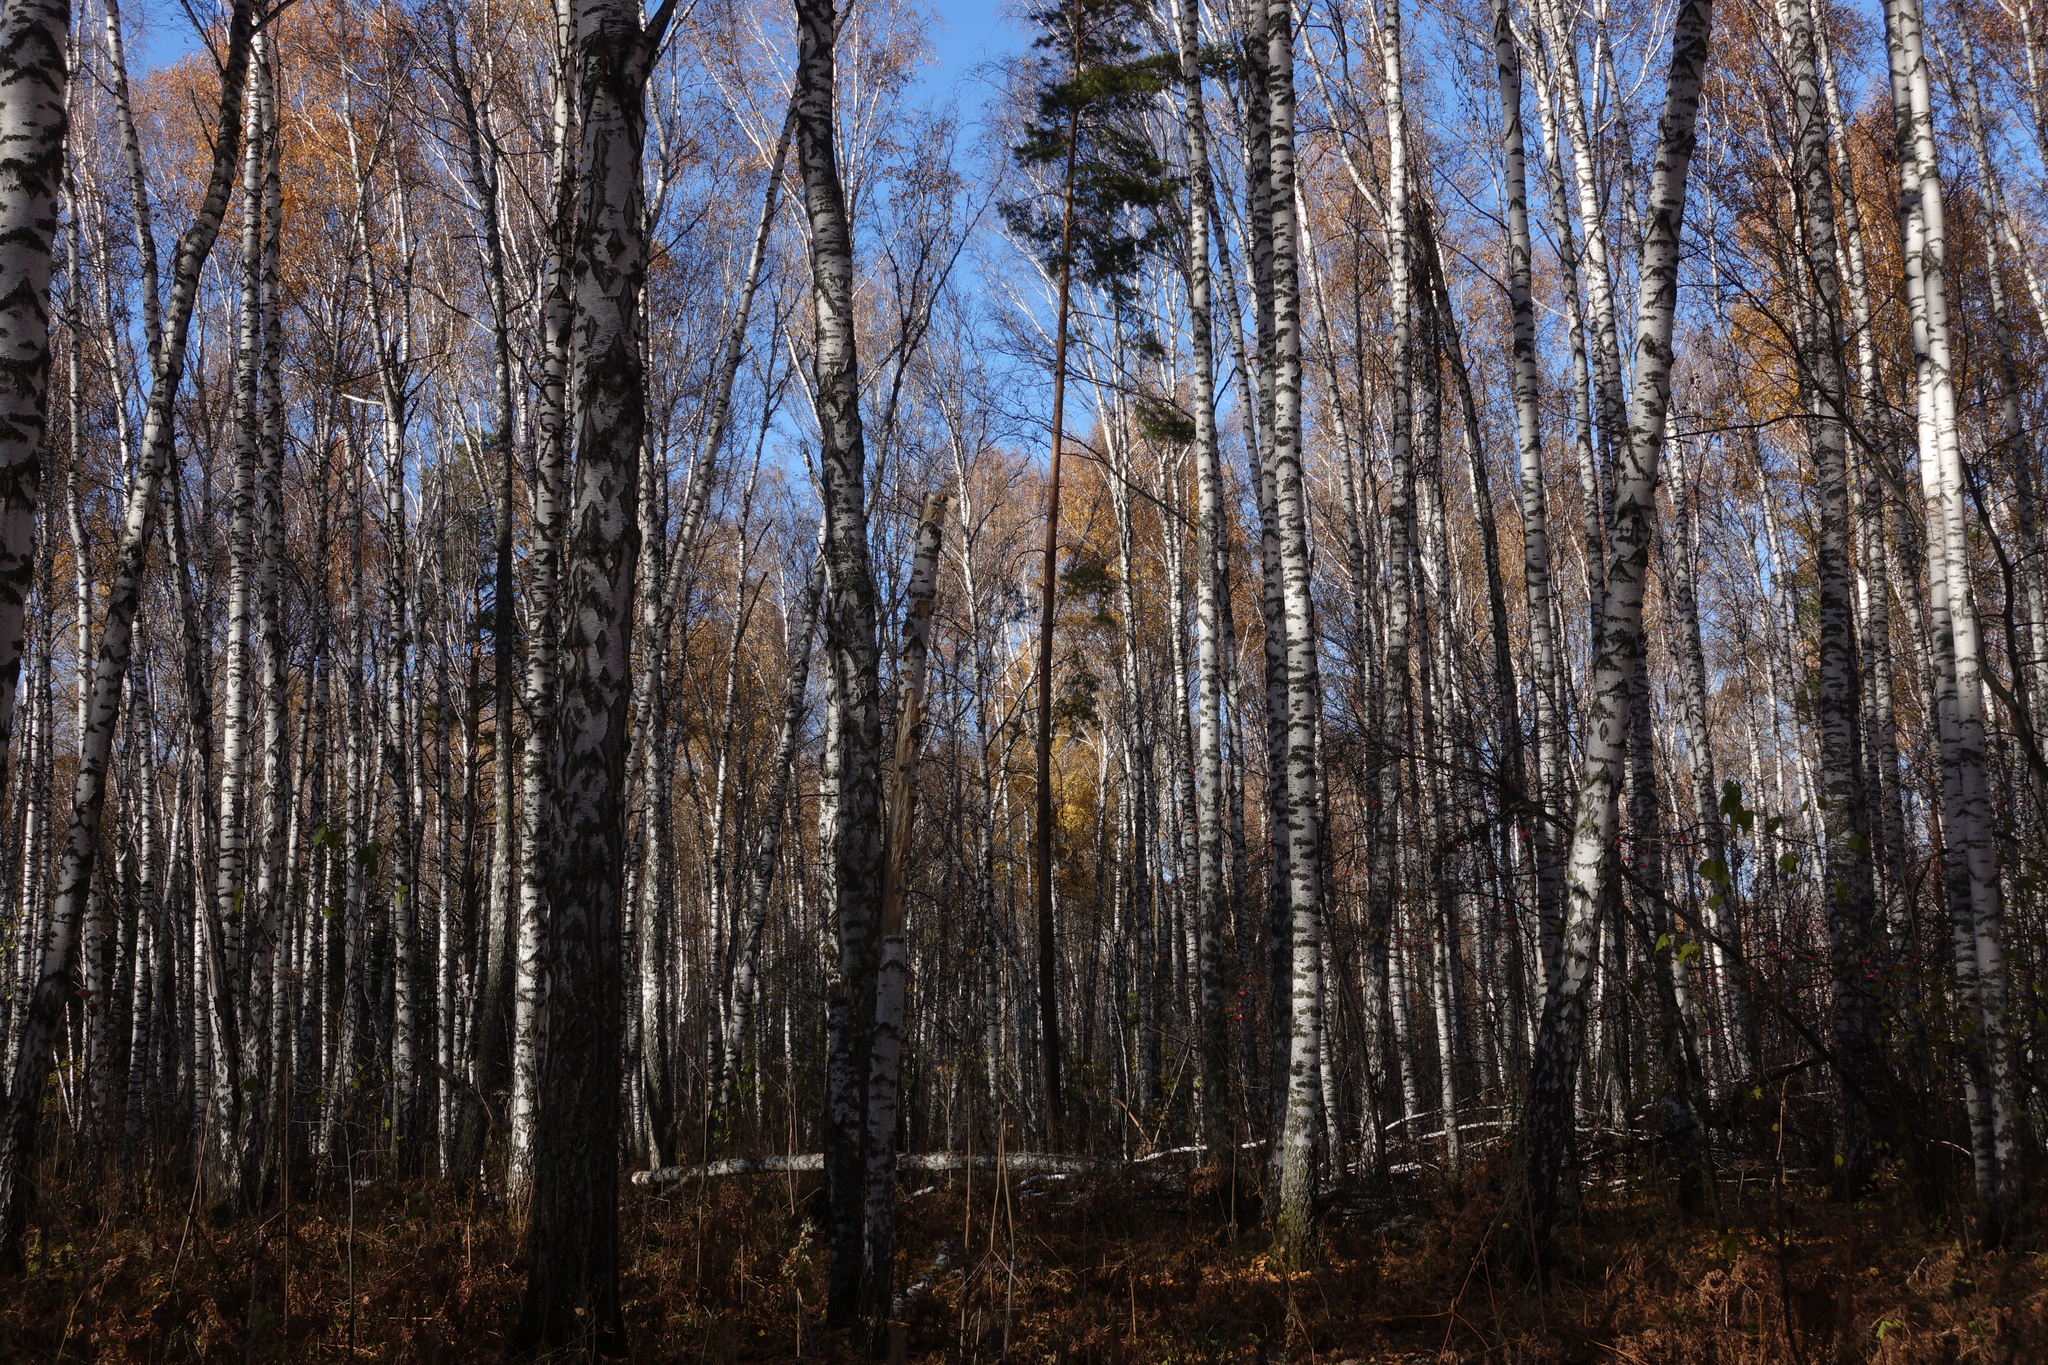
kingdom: Plantae
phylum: Tracheophyta
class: Magnoliopsida
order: Fagales
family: Betulaceae
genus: Betula
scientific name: Betula pendula
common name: Silver birch
